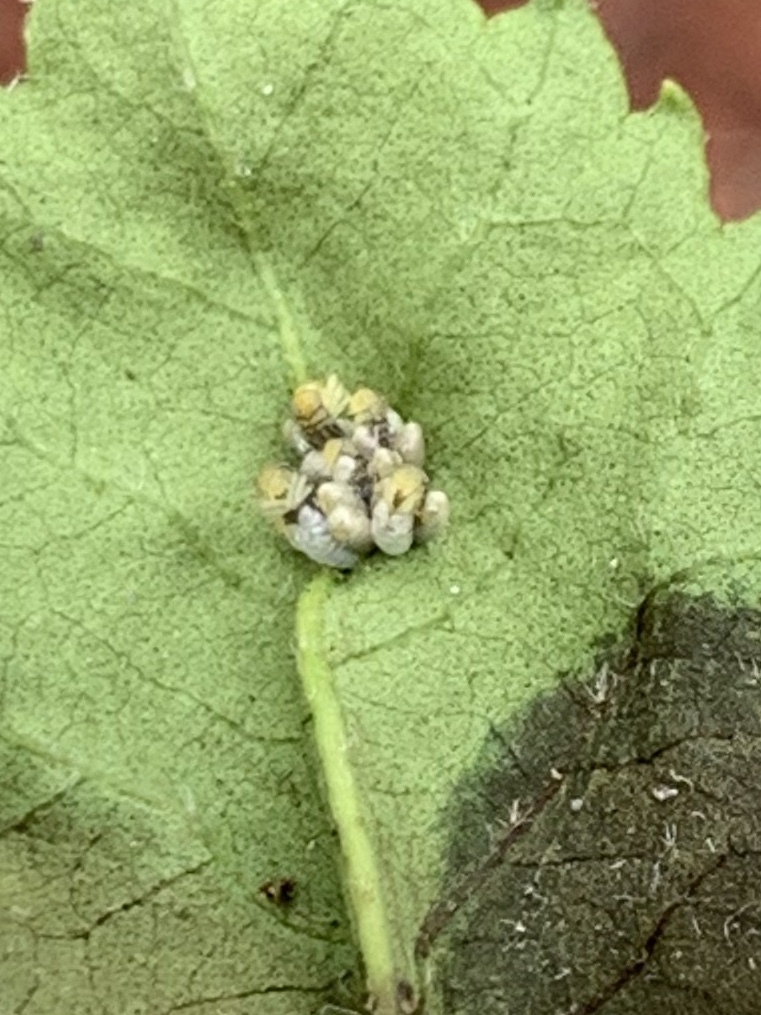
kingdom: Animalia
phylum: Arthropoda
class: Insecta
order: Coleoptera
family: Coccinellidae
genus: Harmonia
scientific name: Harmonia axyridis
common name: Harlequin ladybird
